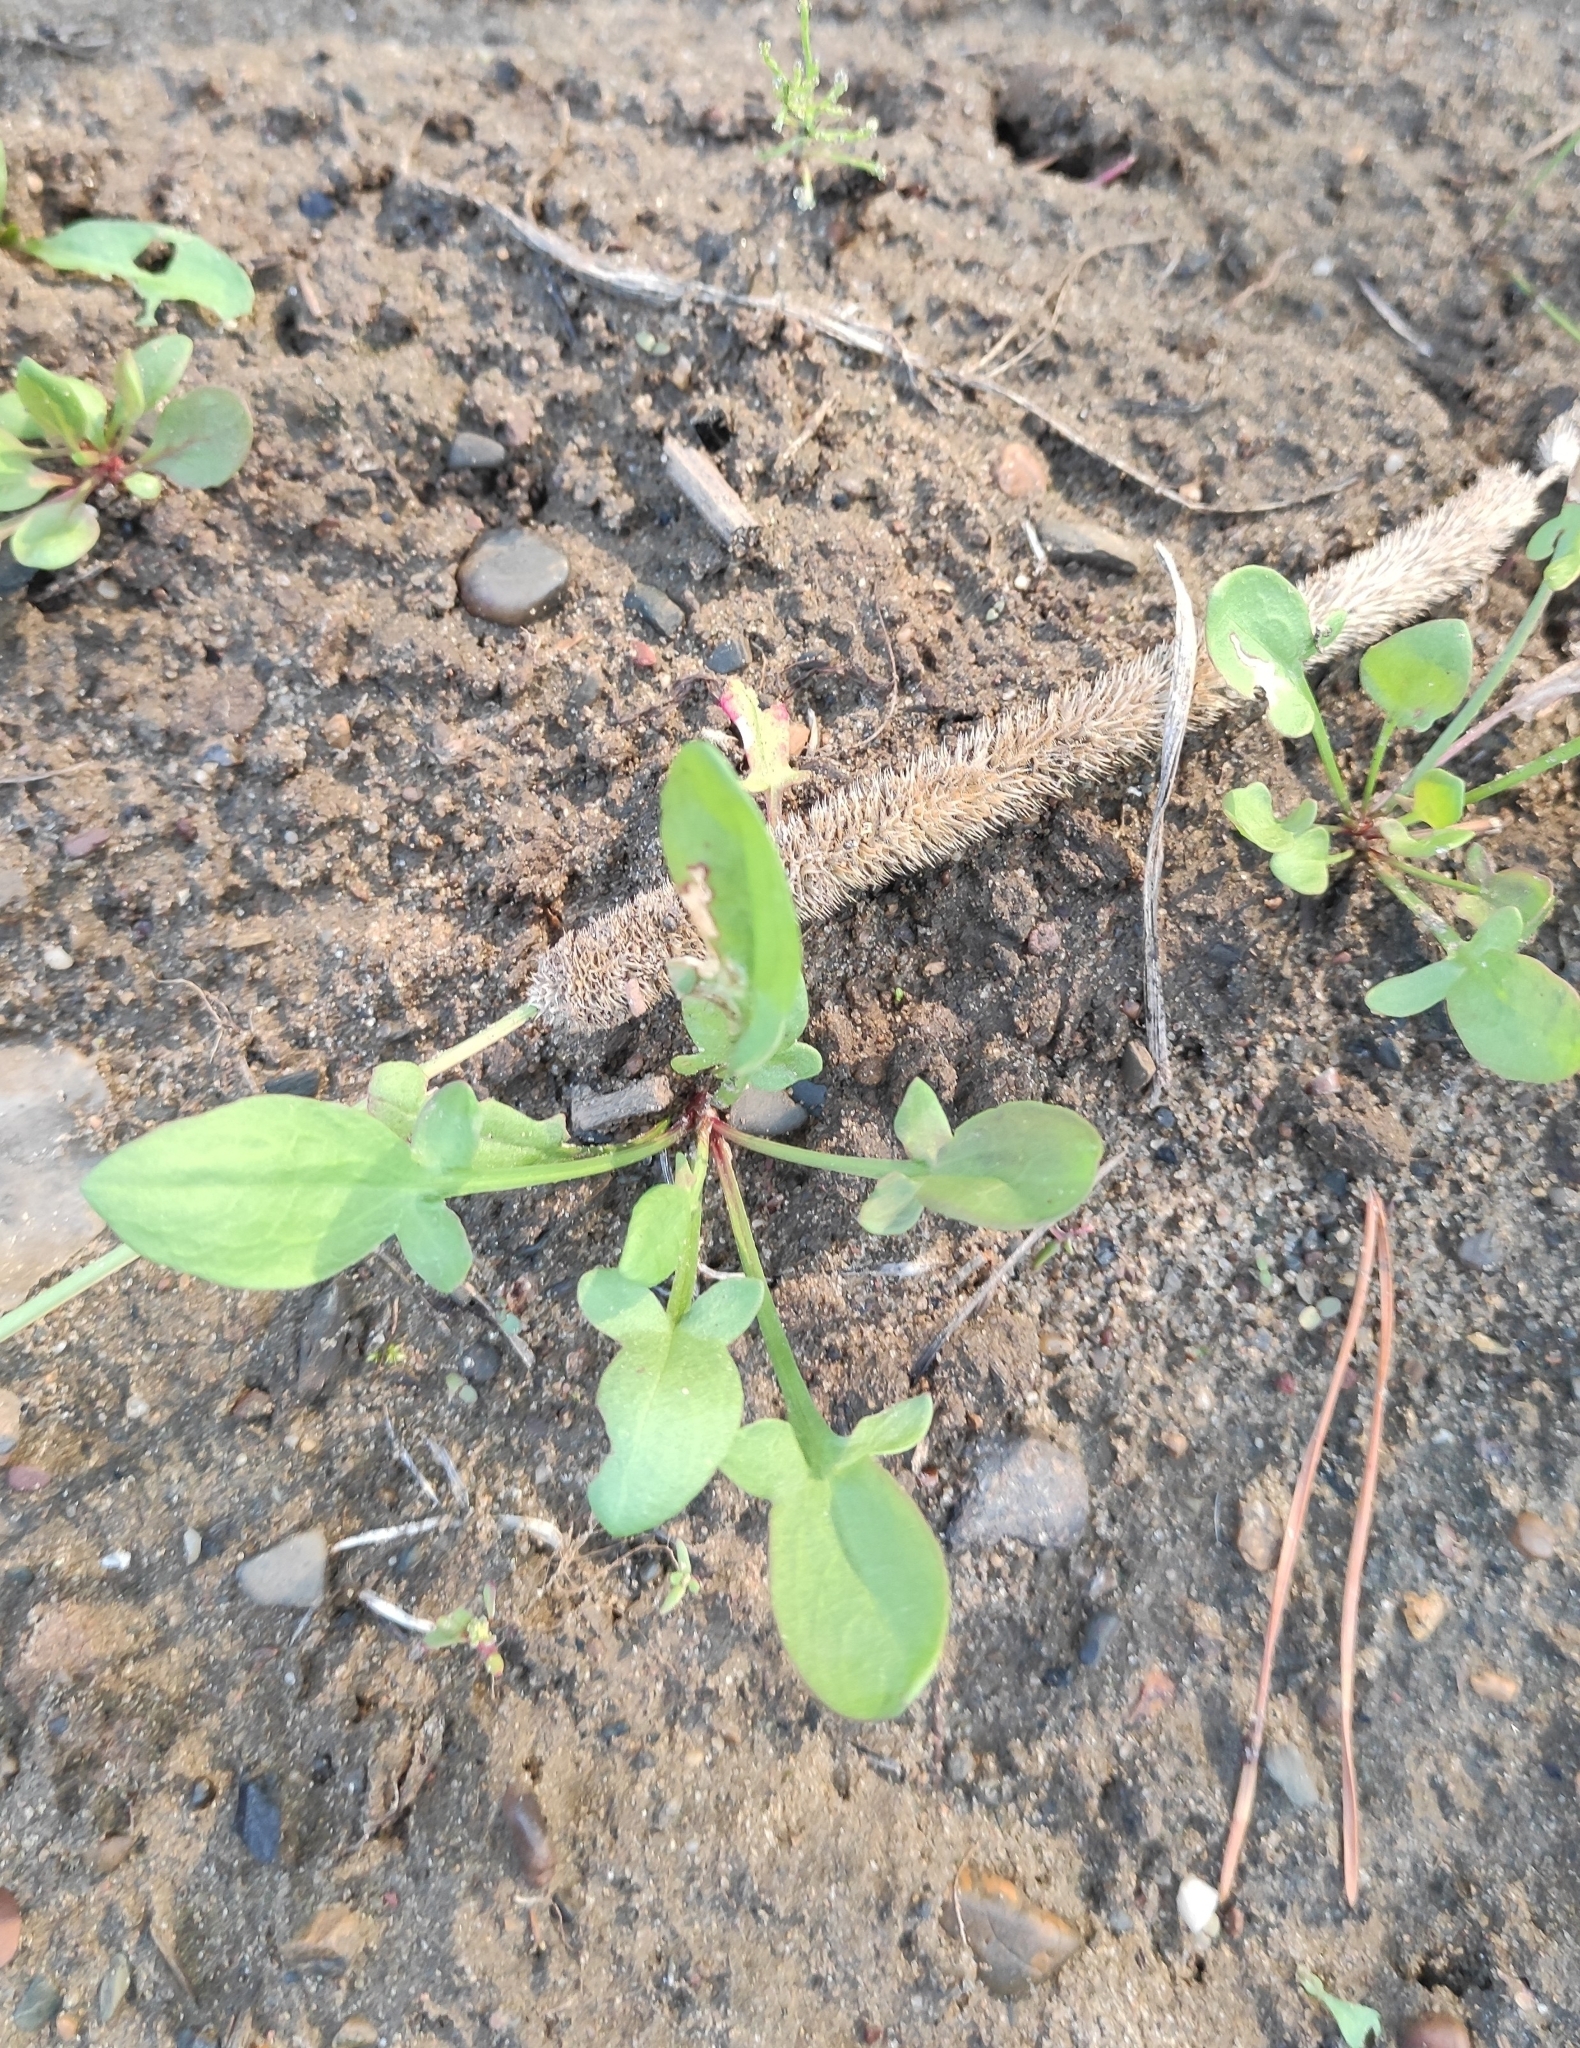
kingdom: Plantae
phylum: Tracheophyta
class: Magnoliopsida
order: Caryophyllales
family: Polygonaceae
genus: Rumex
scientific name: Rumex acetosella
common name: Common sheep sorrel
